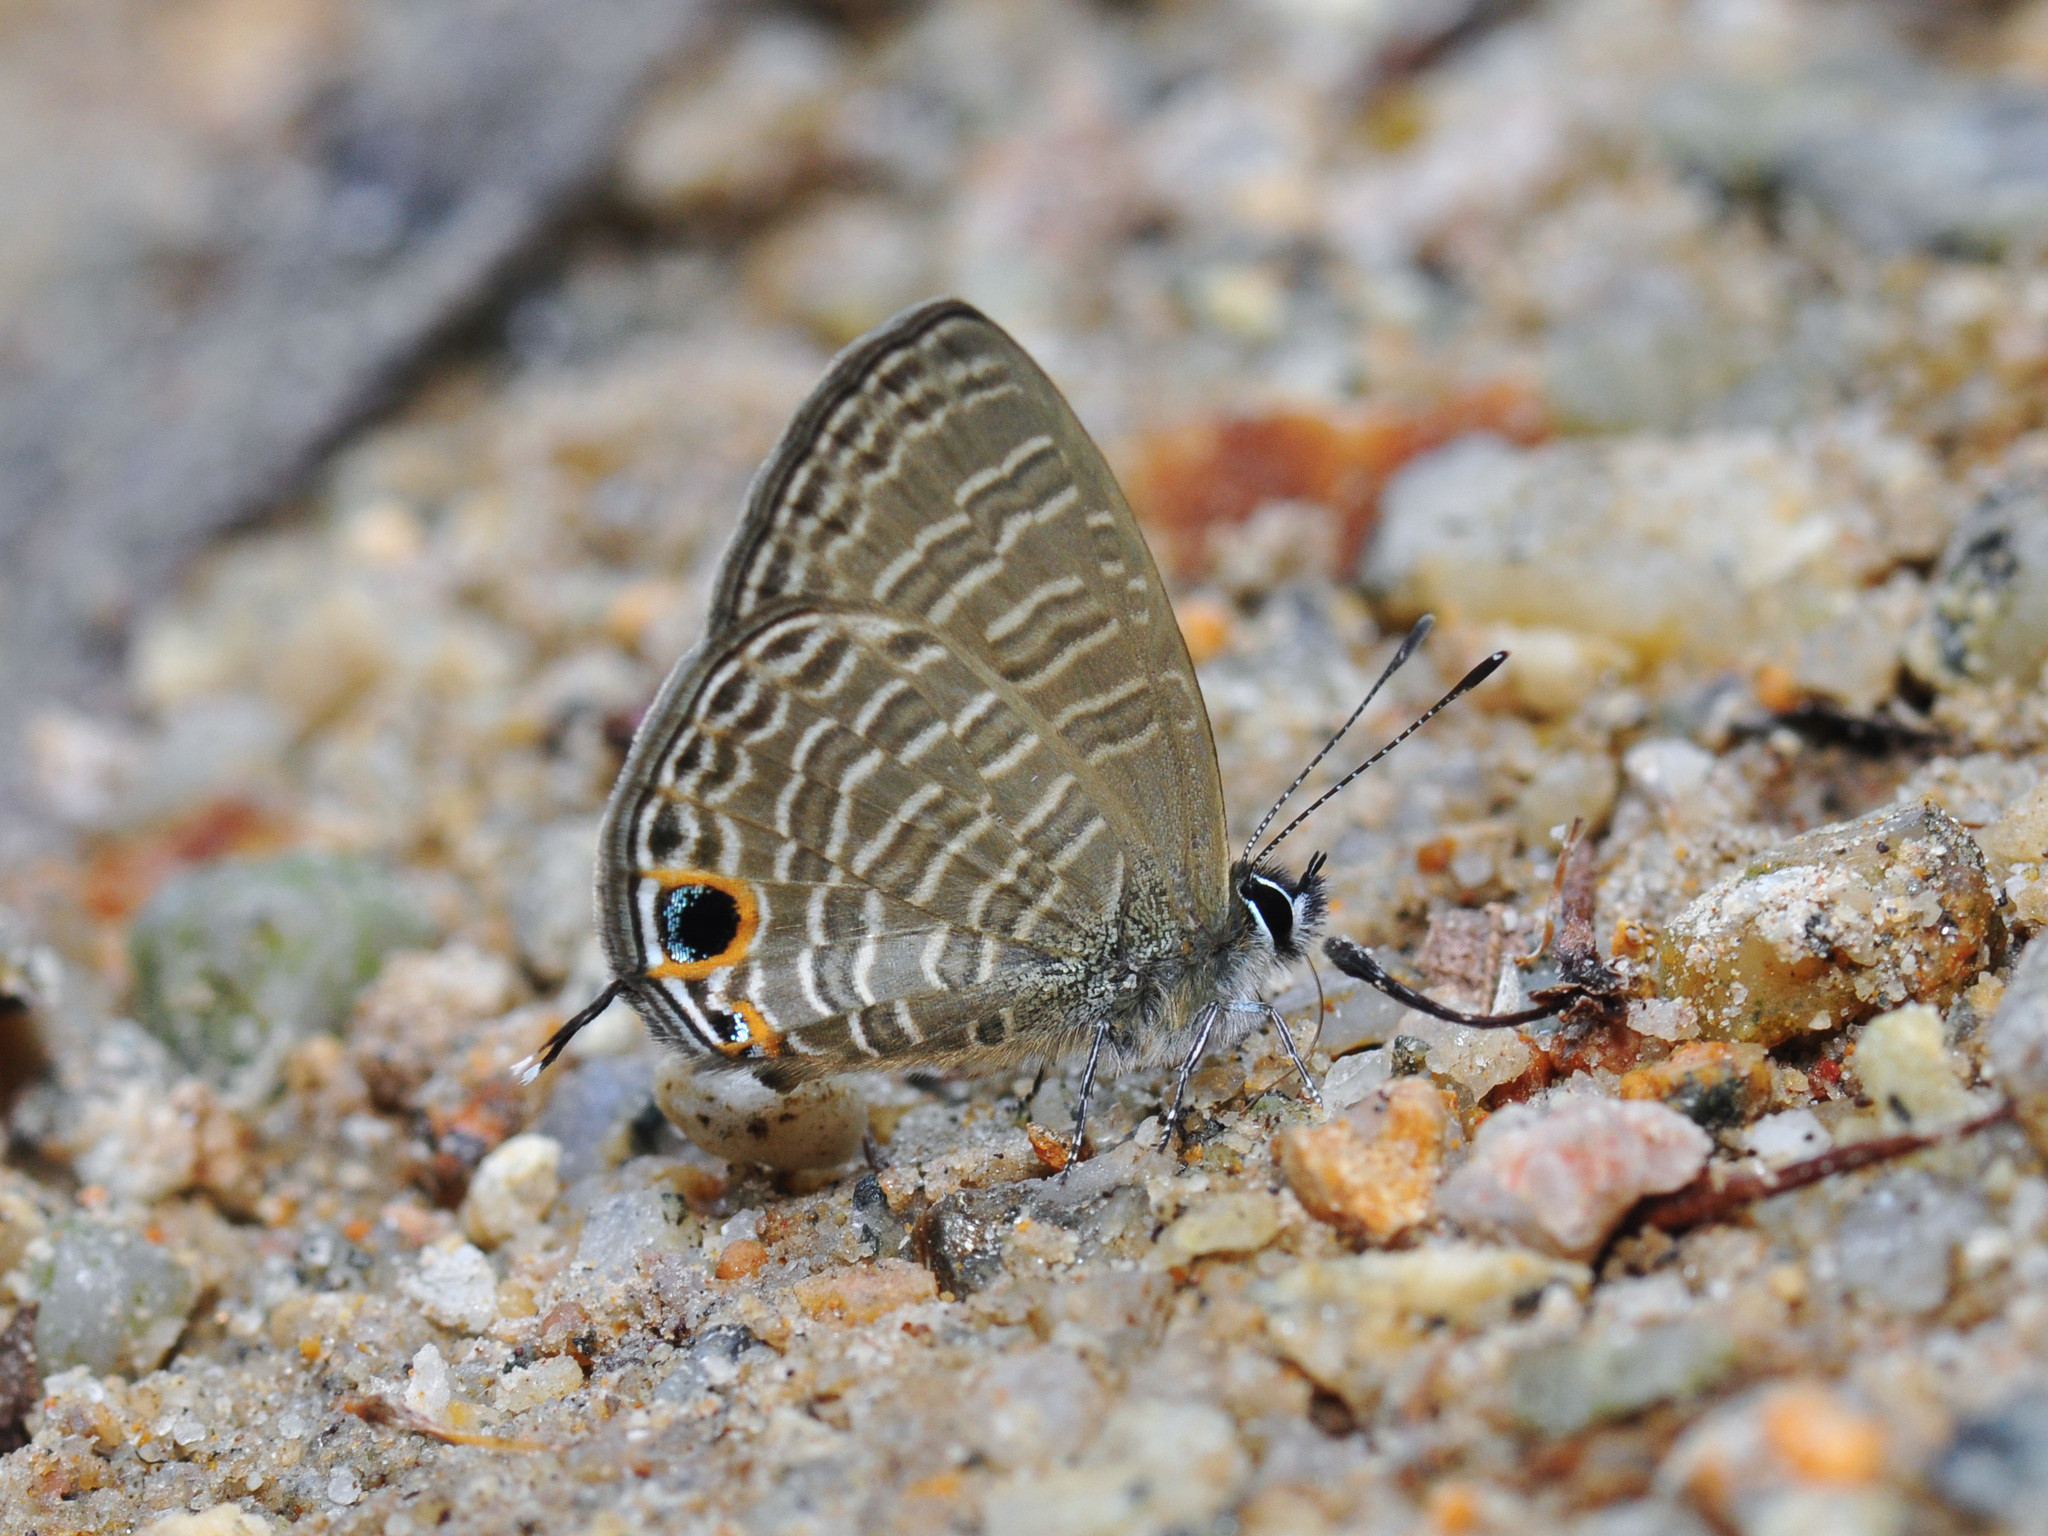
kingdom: Animalia
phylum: Arthropoda
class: Insecta
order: Lepidoptera
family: Lycaenidae
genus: Nacaduba
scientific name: Nacaduba berenice
